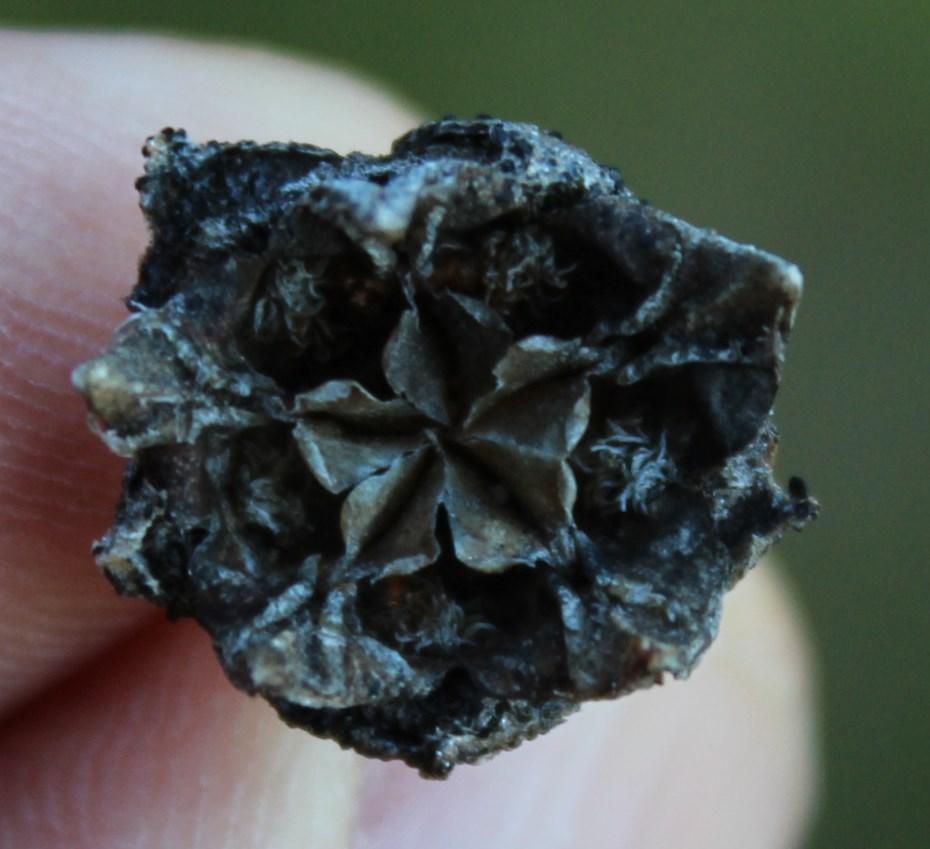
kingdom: Plantae
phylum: Tracheophyta
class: Magnoliopsida
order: Caryophyllales
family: Aizoaceae
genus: Erepsia
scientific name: Erepsia forficata
